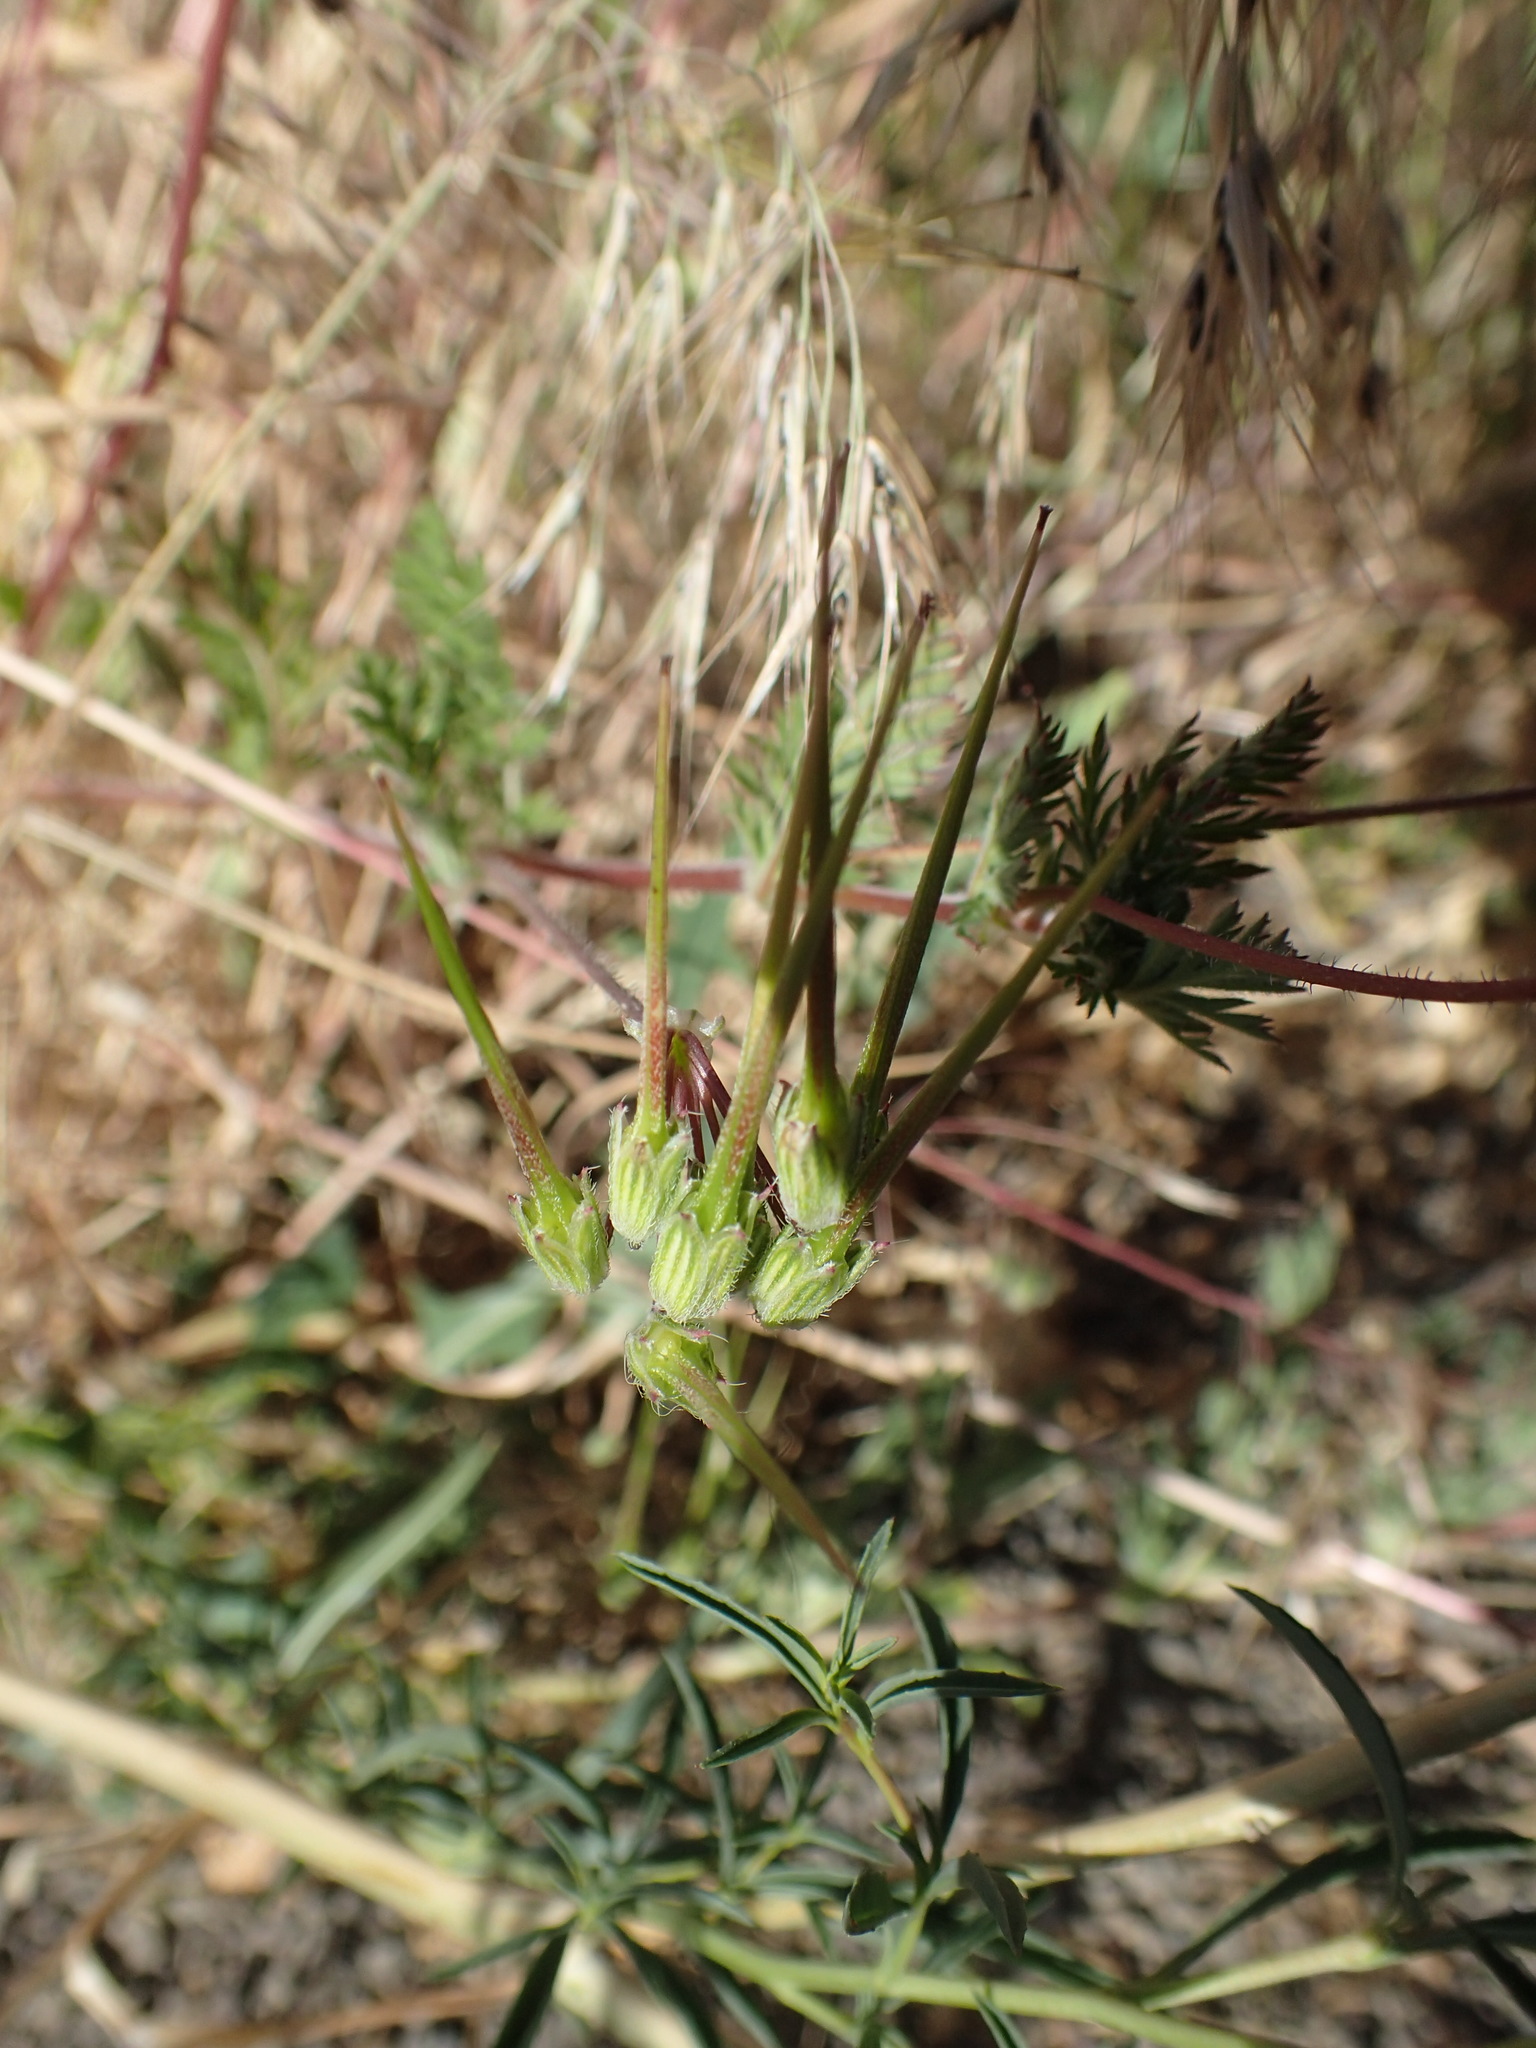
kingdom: Plantae
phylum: Tracheophyta
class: Magnoliopsida
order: Geraniales
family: Geraniaceae
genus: Erodium
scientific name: Erodium cicutarium
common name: Common stork's-bill
